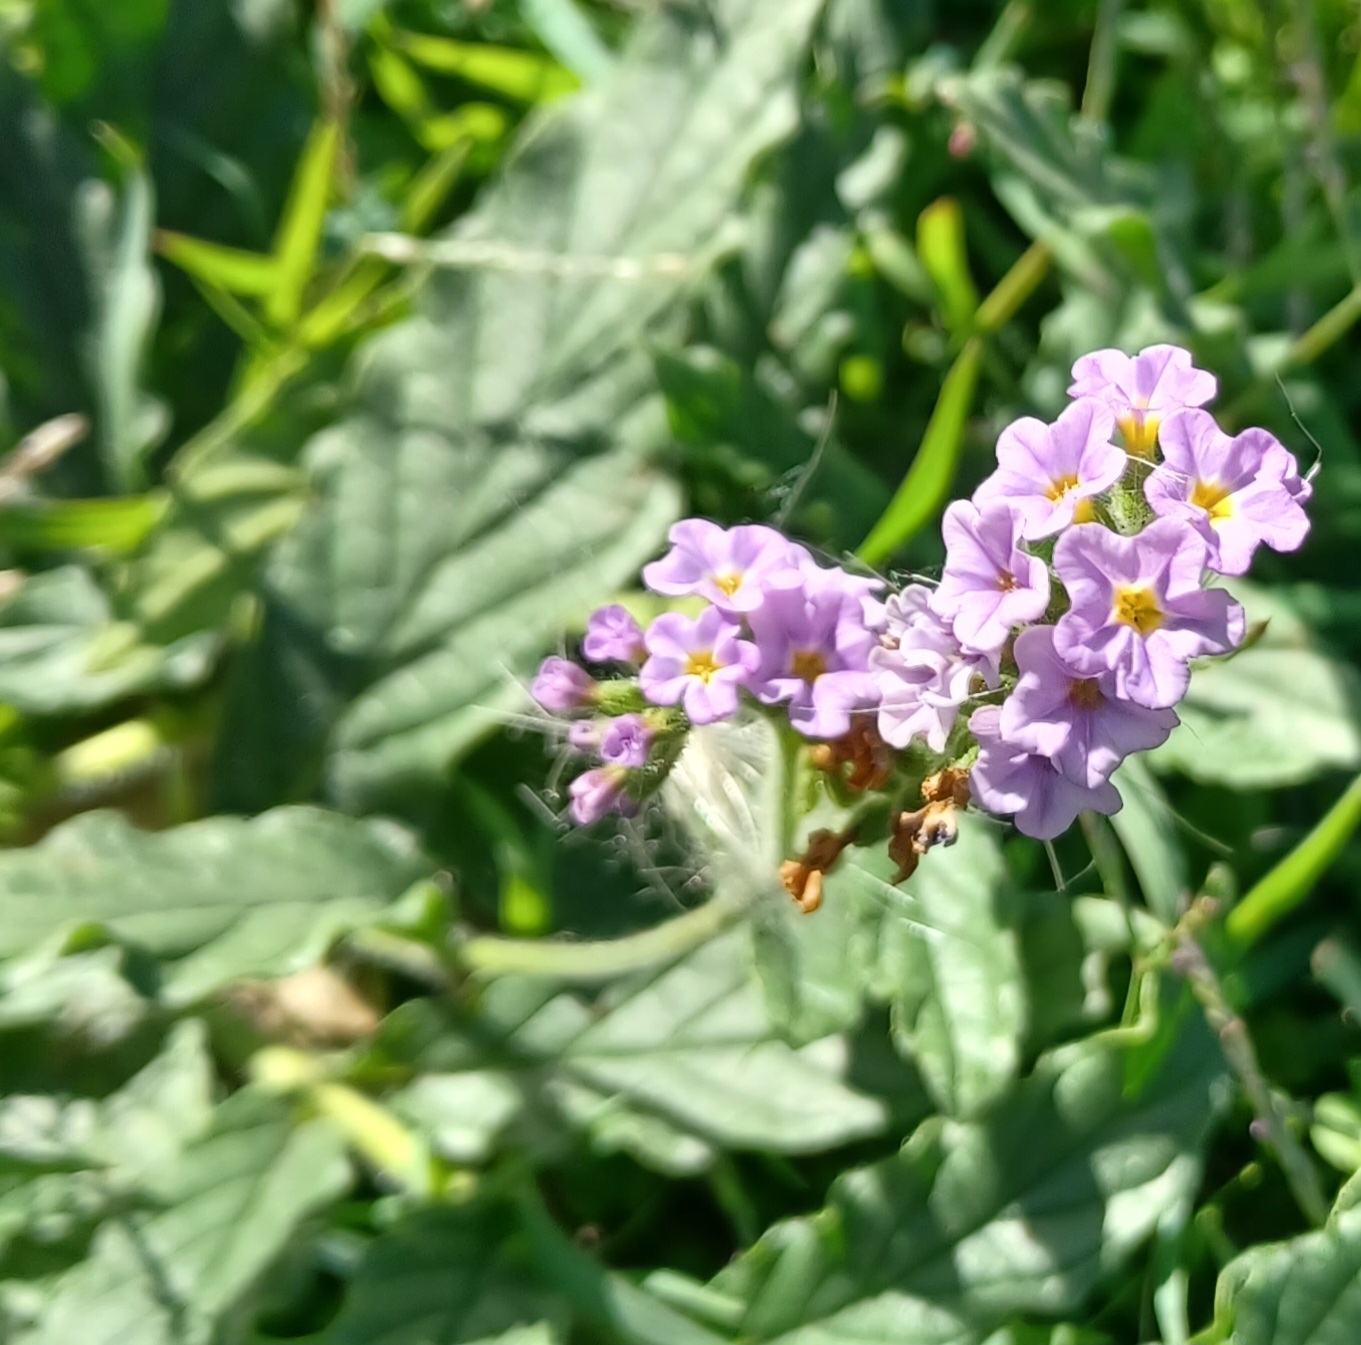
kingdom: Plantae
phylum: Tracheophyta
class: Magnoliopsida
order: Boraginales
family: Heliotropiaceae
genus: Heliotropium
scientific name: Heliotropium amplexicaule
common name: Clasping heliotrope
